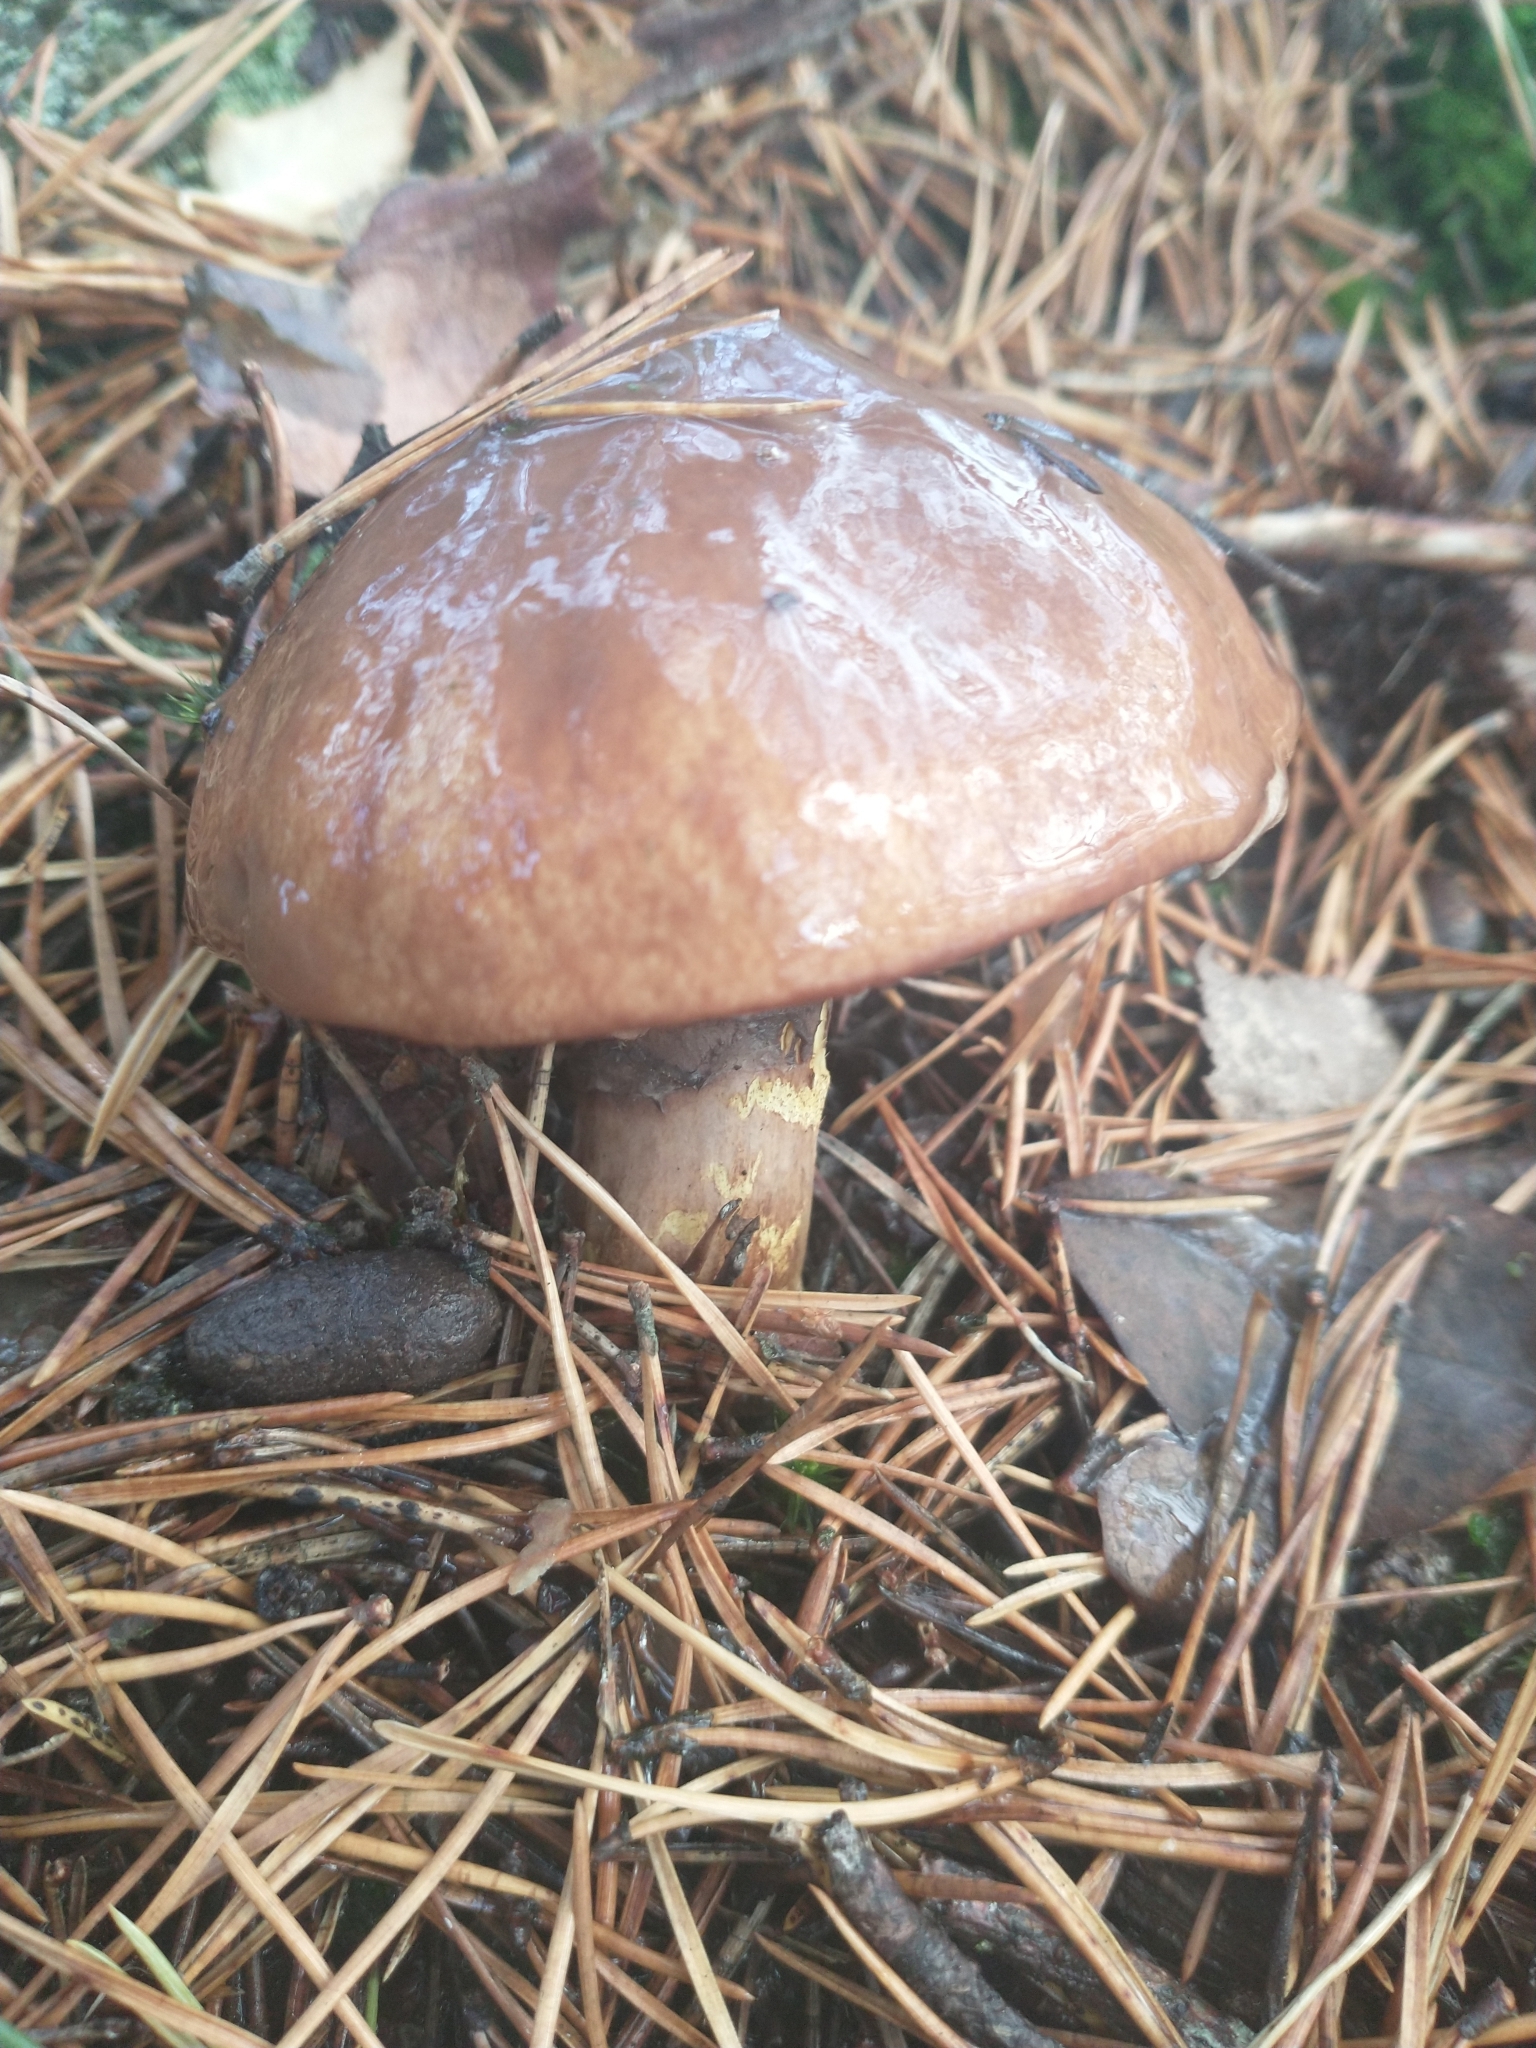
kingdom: Fungi
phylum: Basidiomycota
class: Agaricomycetes
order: Boletales
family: Suillaceae
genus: Suillus
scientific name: Suillus luteus
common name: Slippery jack
